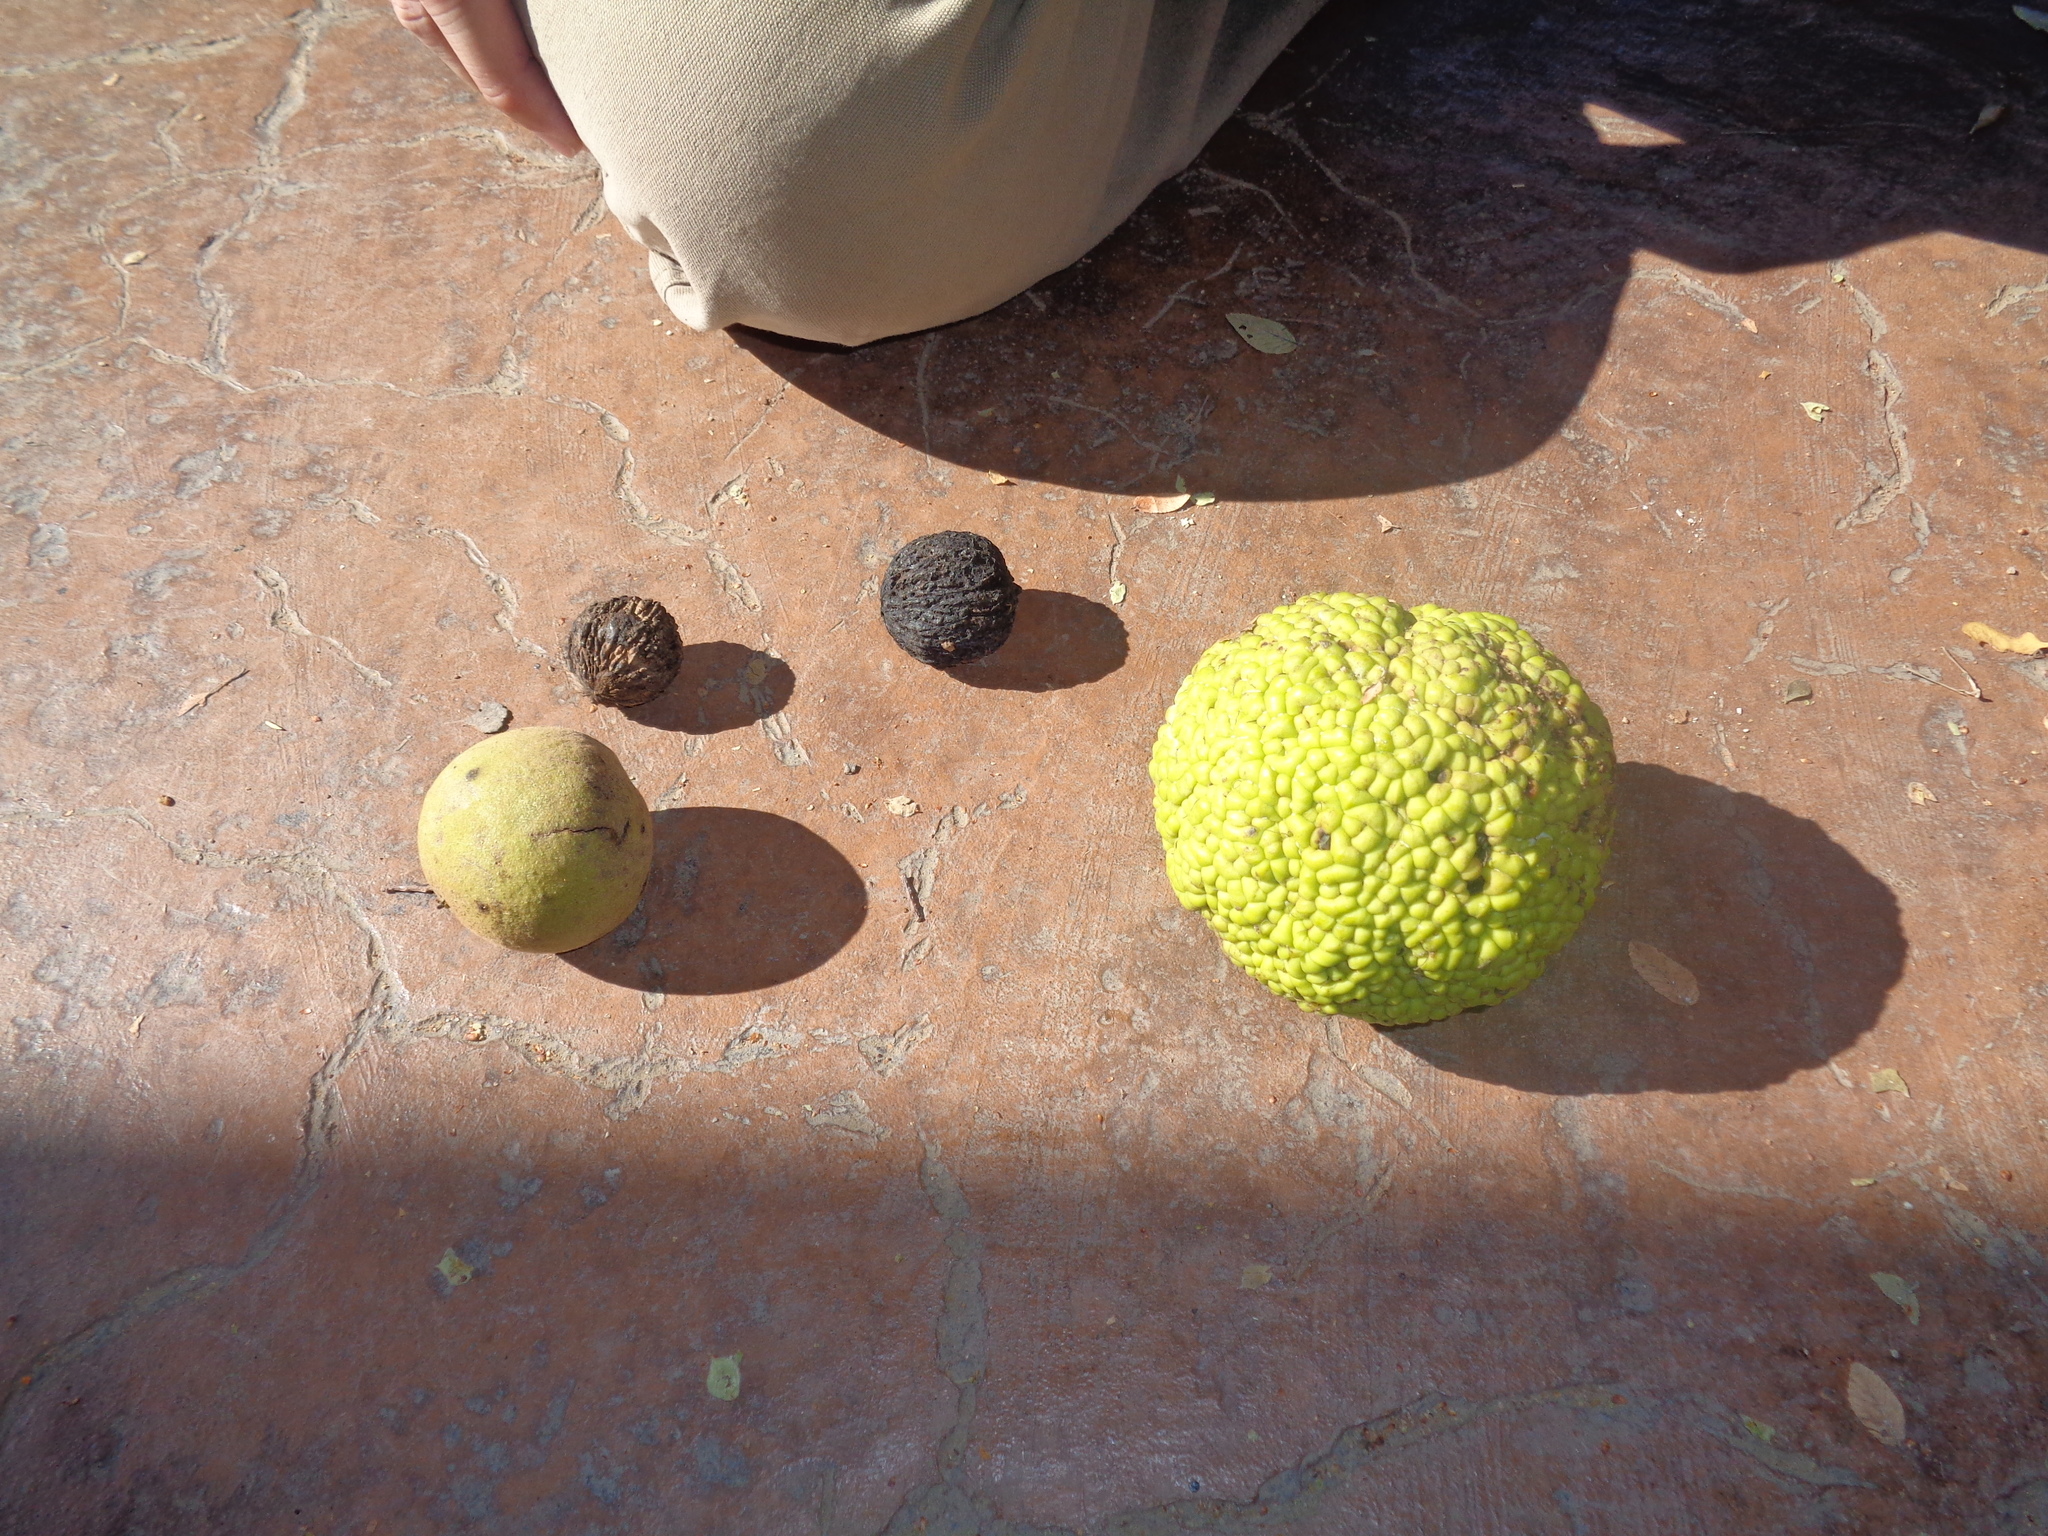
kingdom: Plantae
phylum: Tracheophyta
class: Magnoliopsida
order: Fagales
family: Juglandaceae
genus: Juglans
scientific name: Juglans nigra
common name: Black walnut
